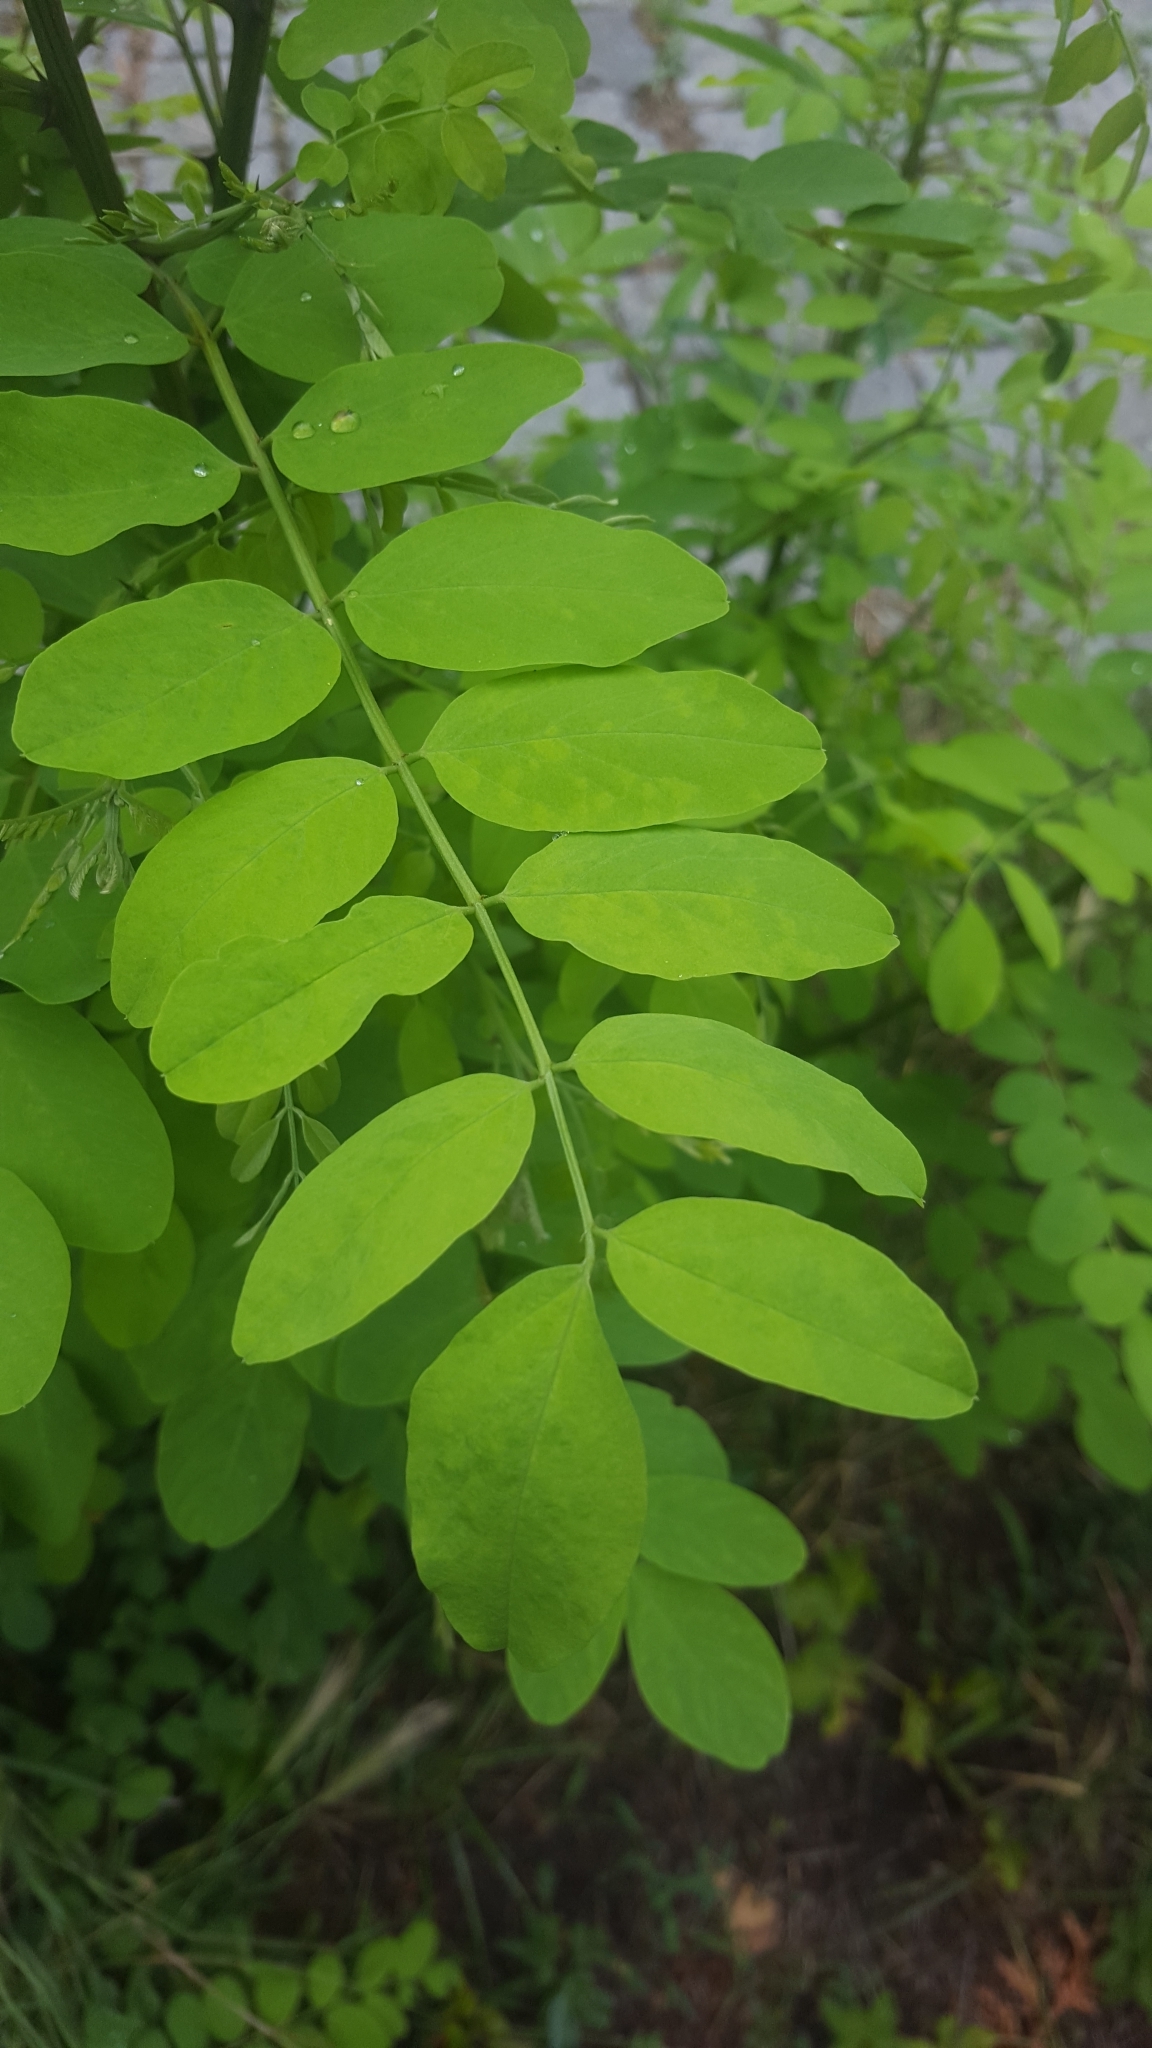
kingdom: Plantae
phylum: Tracheophyta
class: Magnoliopsida
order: Fabales
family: Fabaceae
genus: Robinia
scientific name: Robinia pseudoacacia
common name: Black locust
